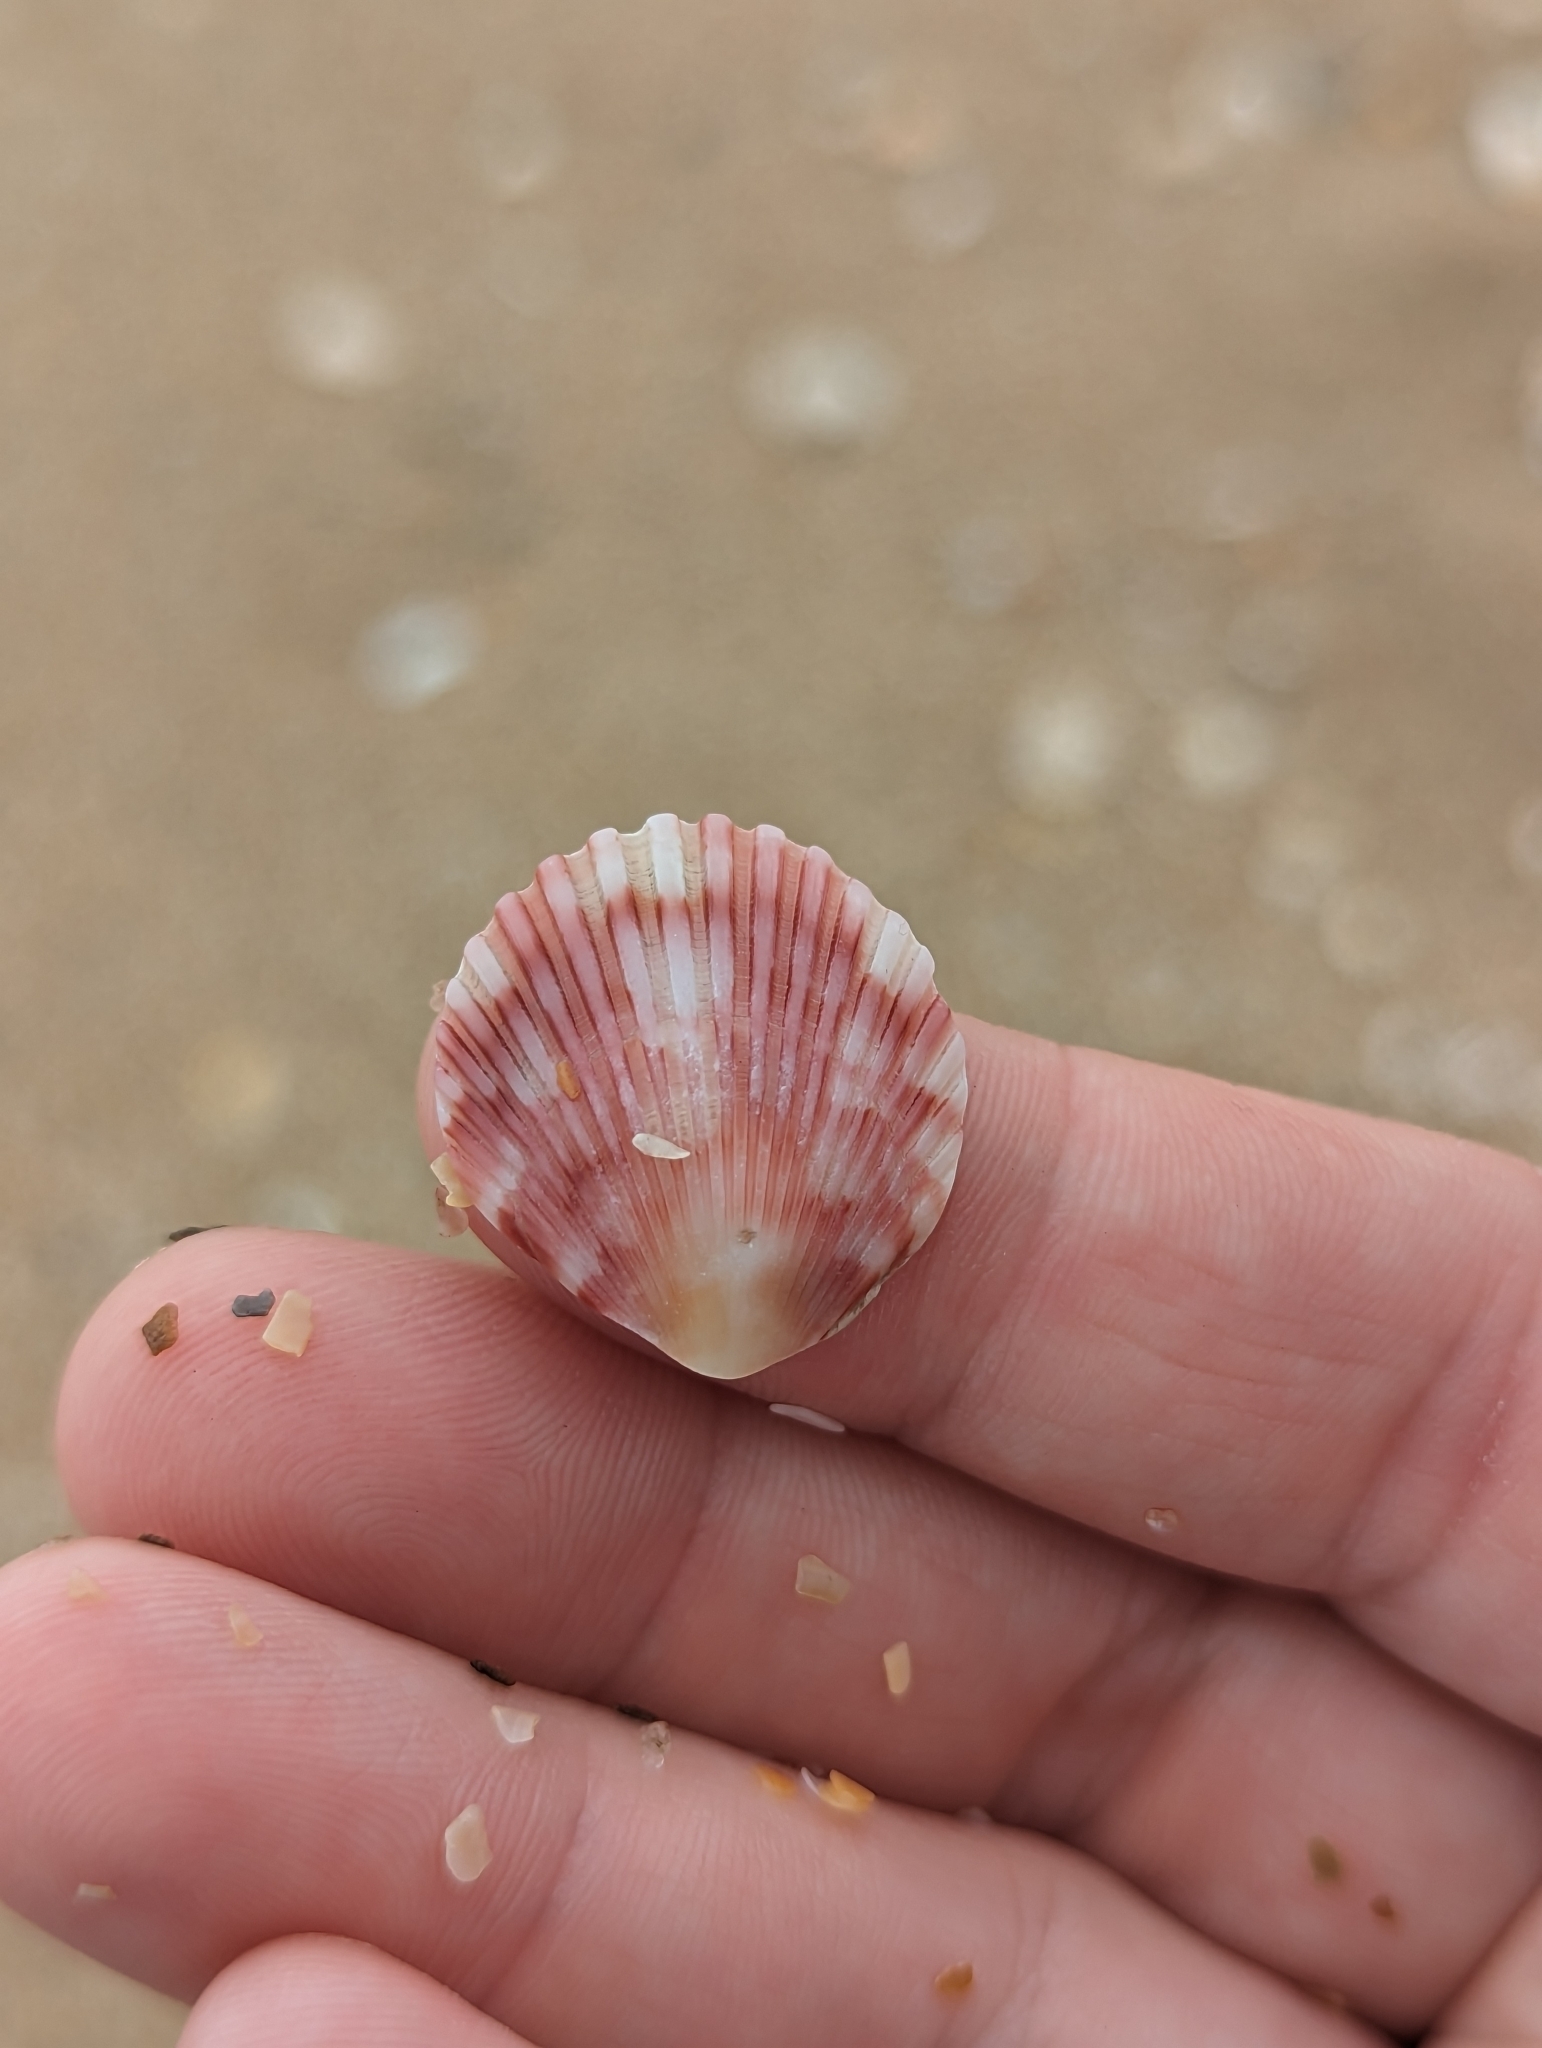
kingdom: Animalia
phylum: Mollusca
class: Bivalvia
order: Pectinida
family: Pectinidae
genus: Argopecten
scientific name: Argopecten gibbus
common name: Atlantic calico scallop
